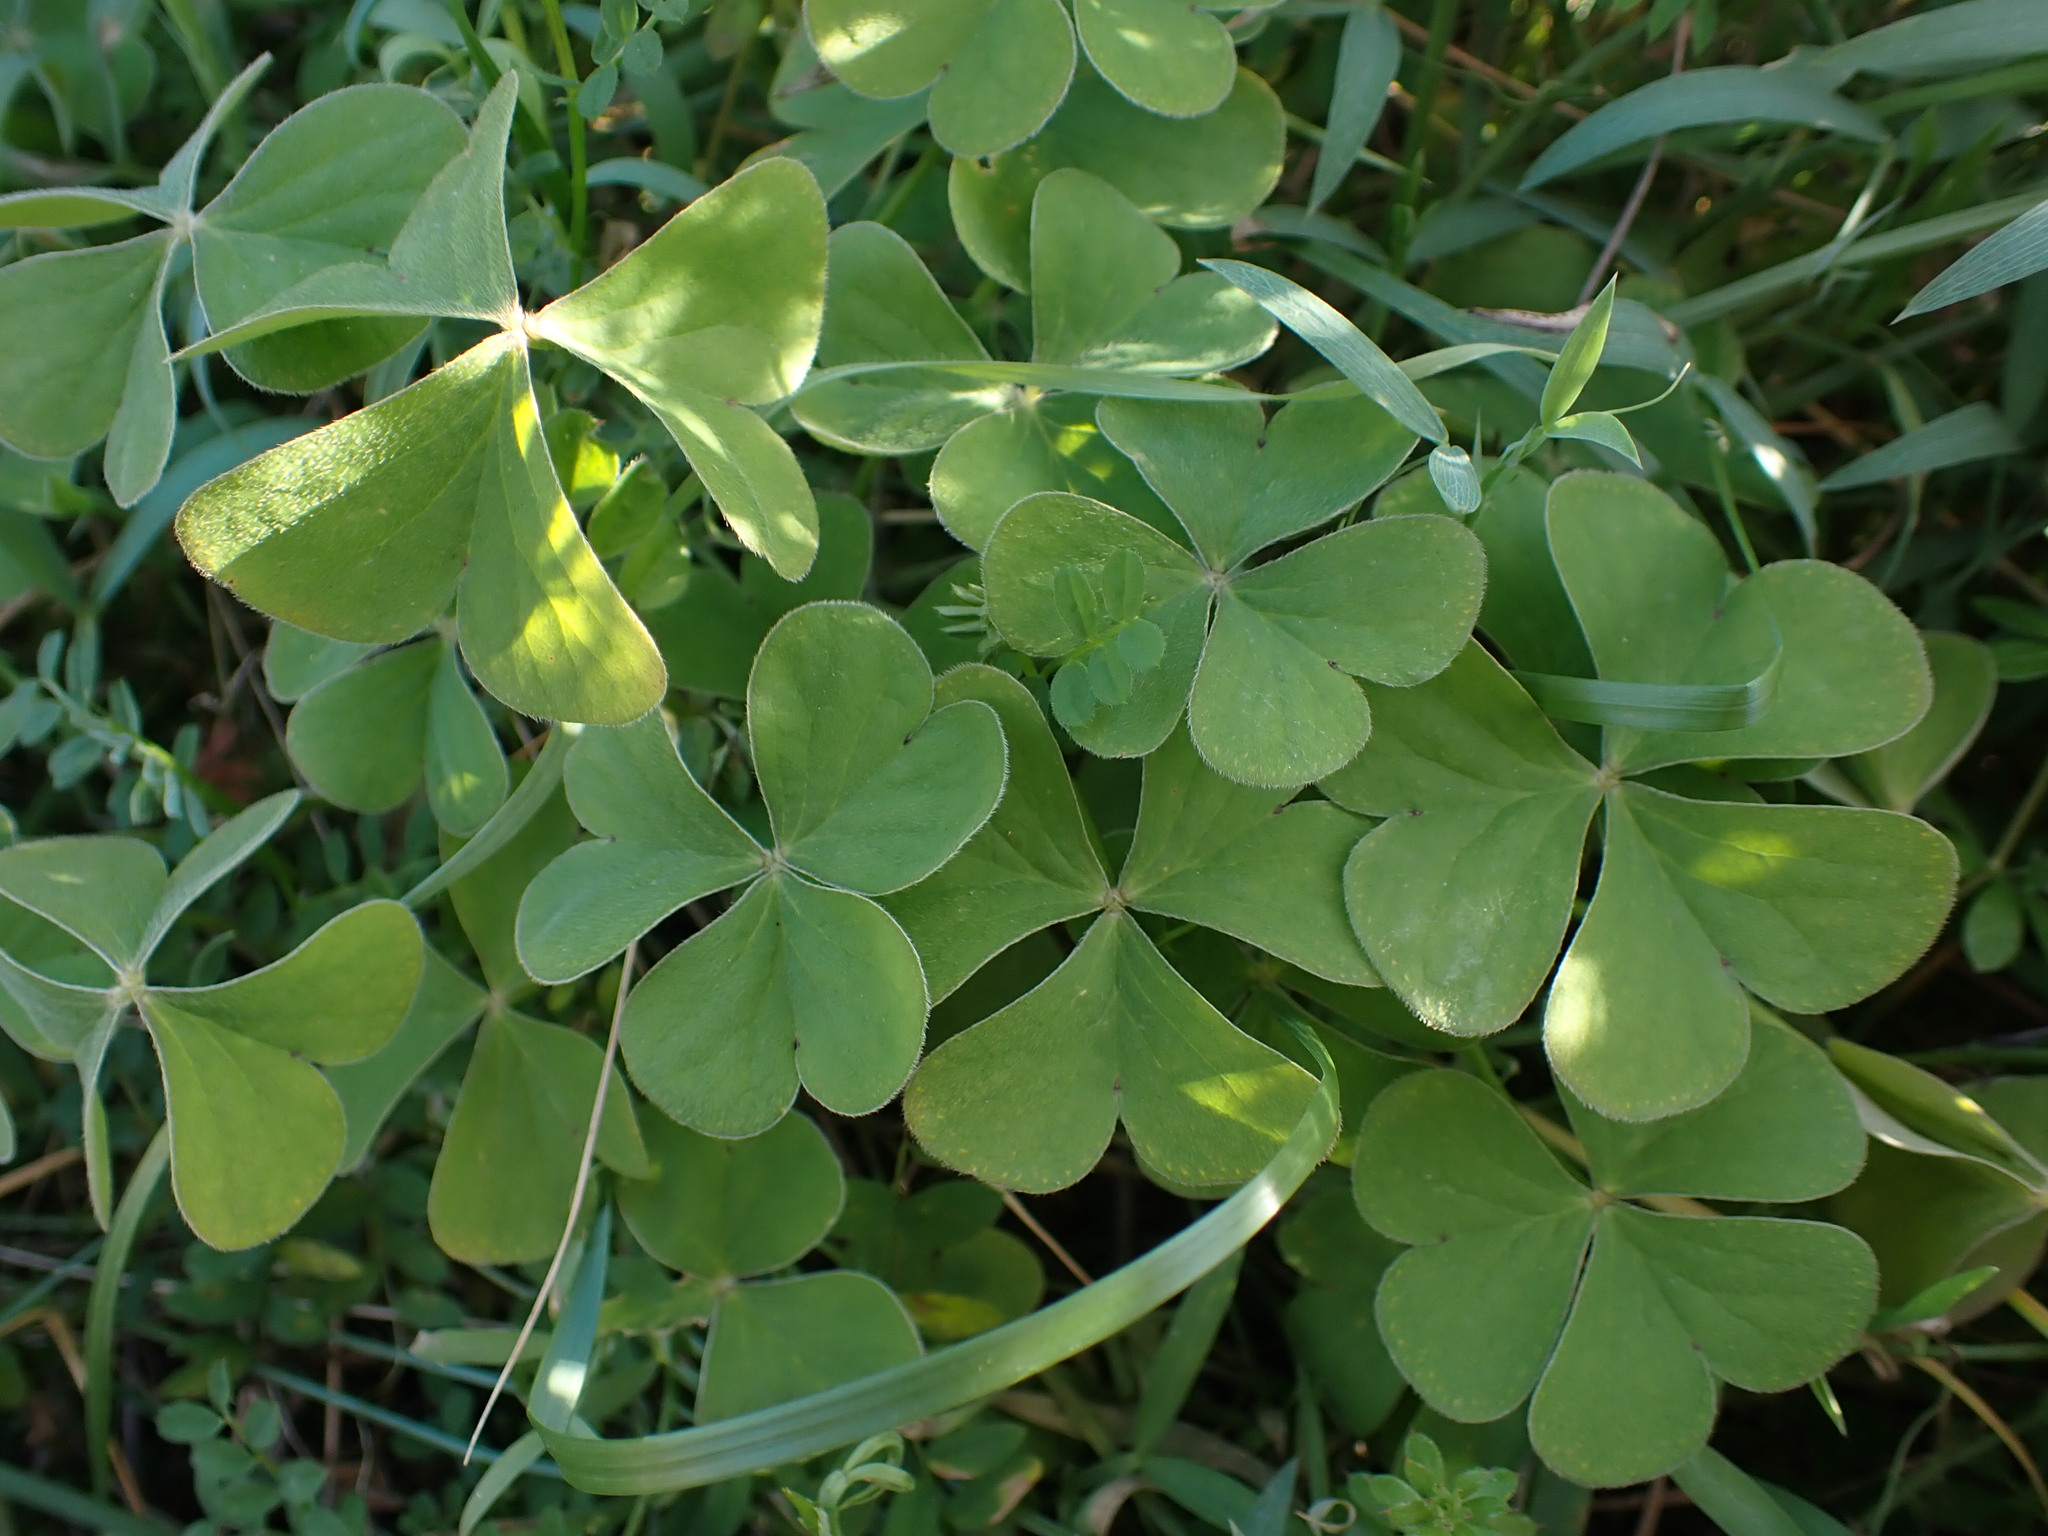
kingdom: Plantae
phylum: Tracheophyta
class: Magnoliopsida
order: Oxalidales
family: Oxalidaceae
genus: Oxalis
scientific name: Oxalis articulata
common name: Pink-sorrel
